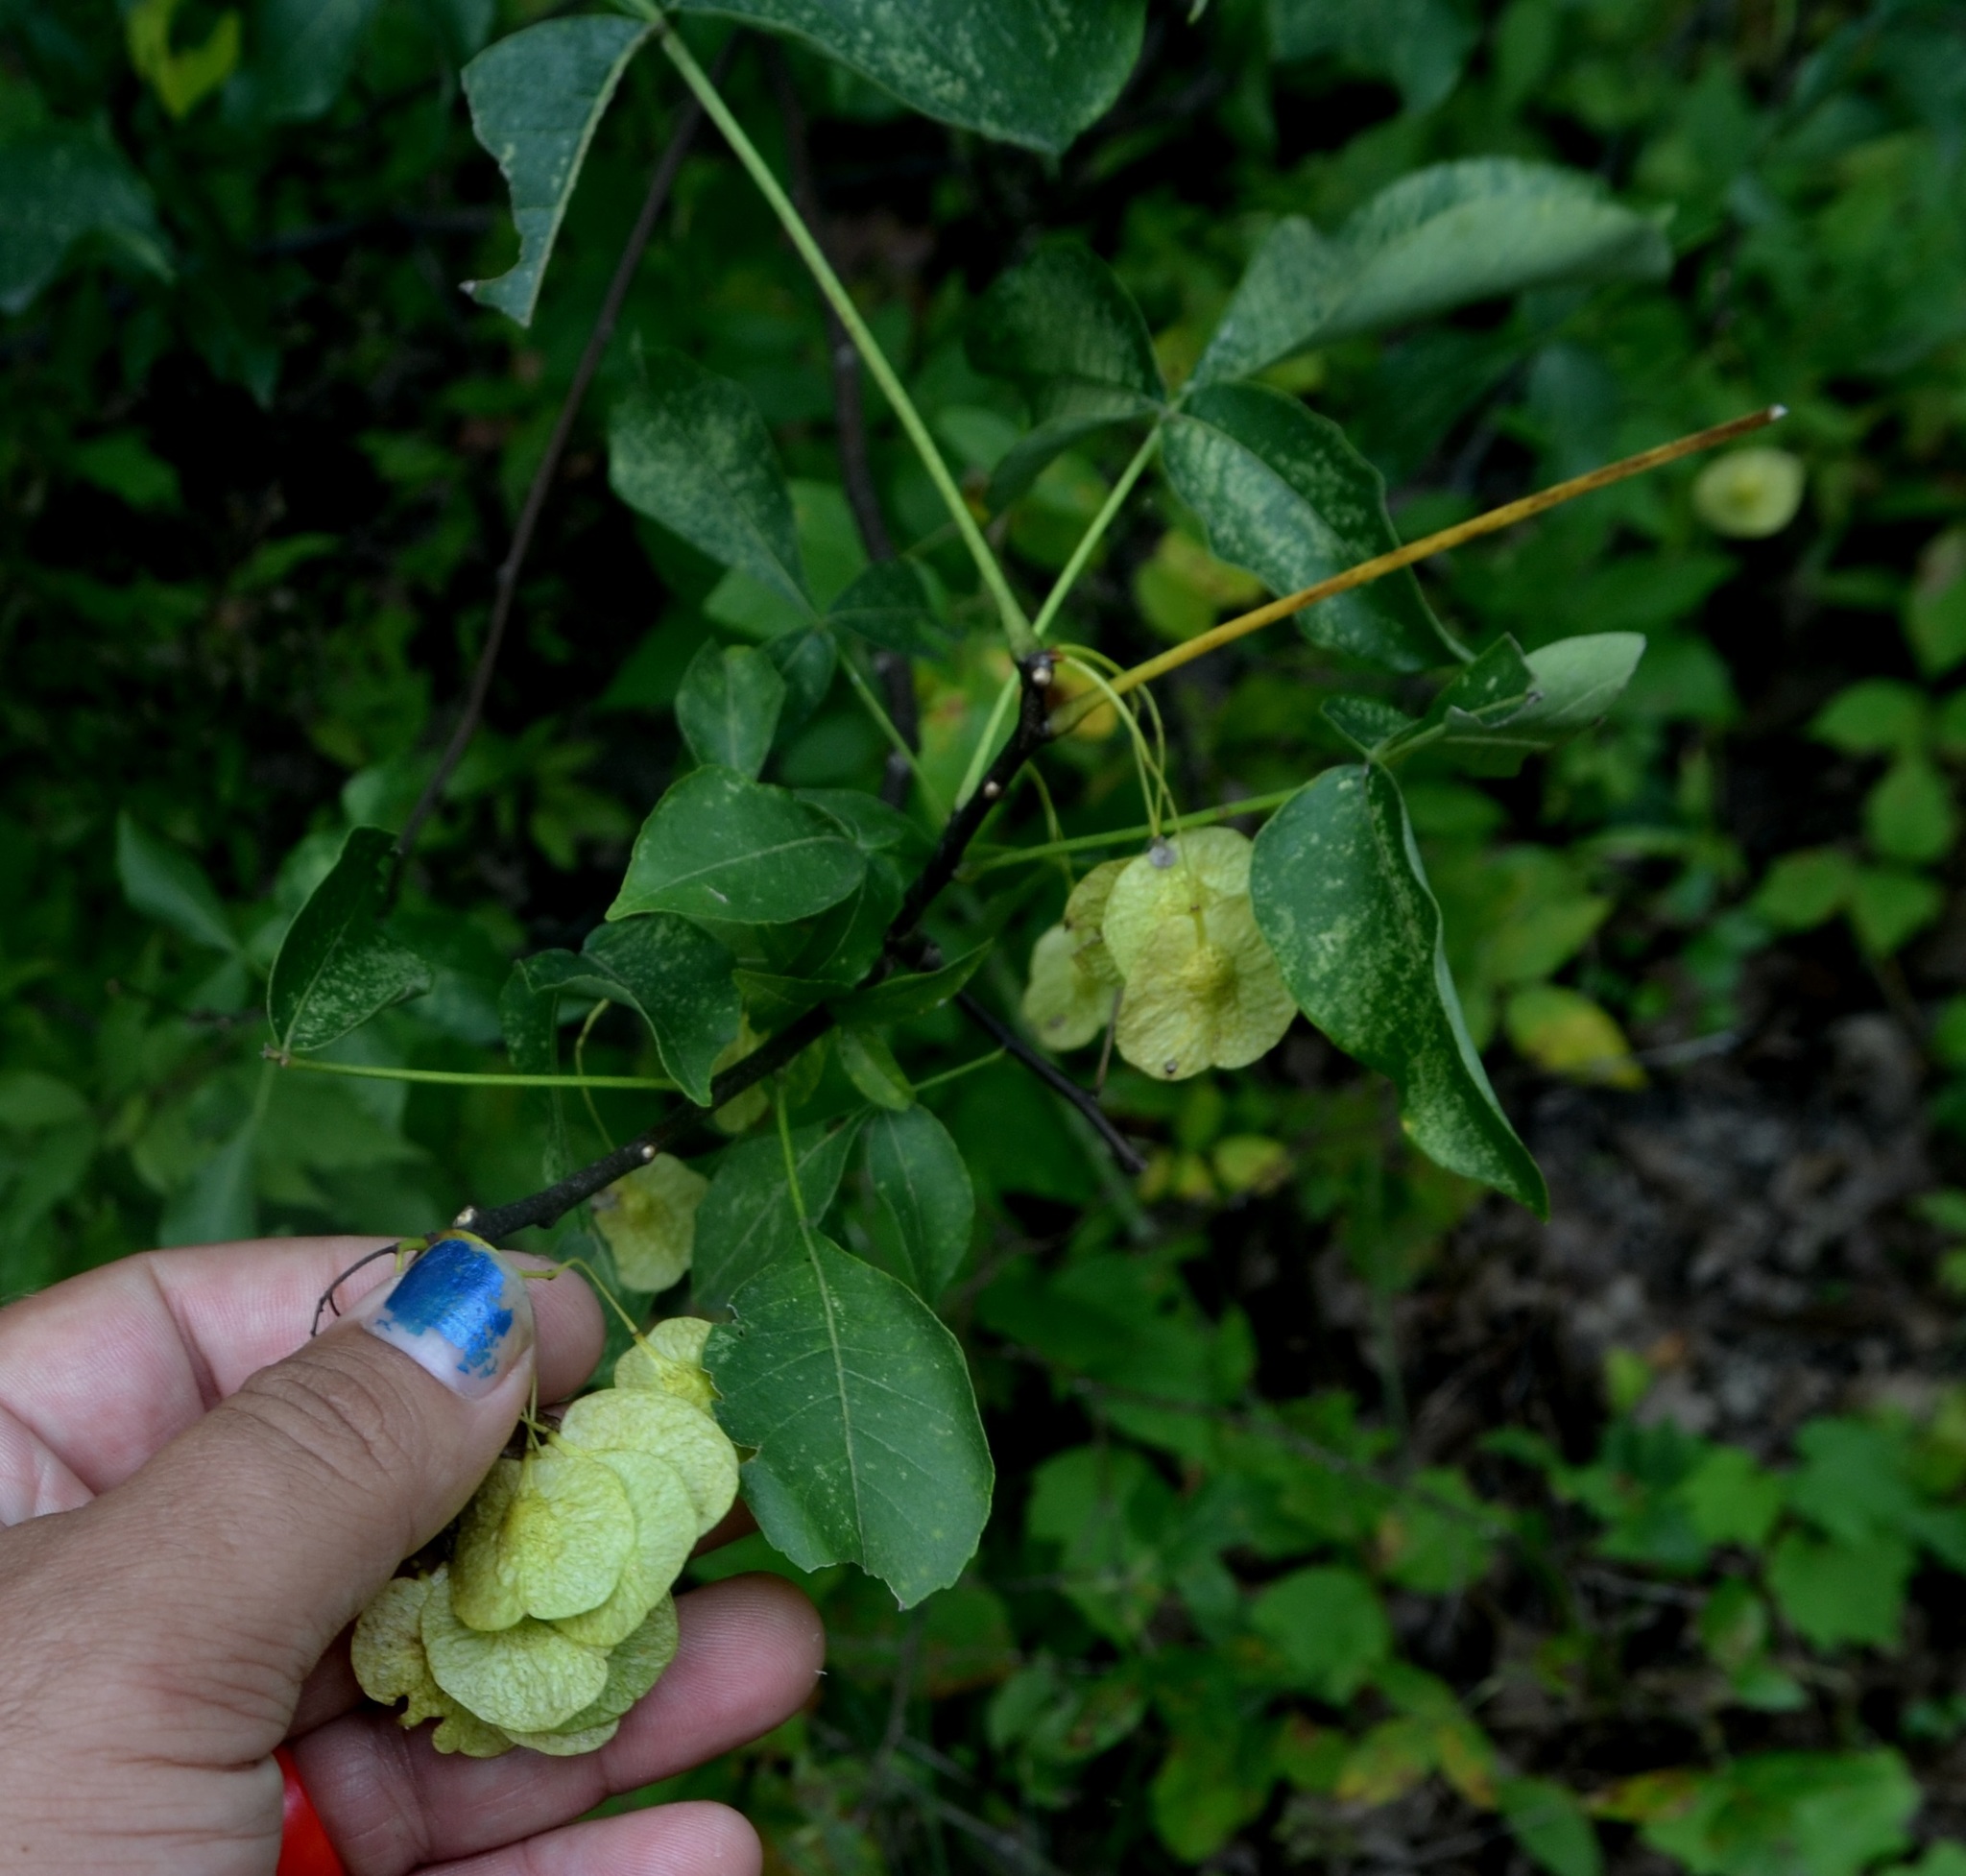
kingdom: Plantae
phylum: Tracheophyta
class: Magnoliopsida
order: Sapindales
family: Rutaceae
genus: Ptelea
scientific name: Ptelea trifoliata
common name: Common hop-tree
